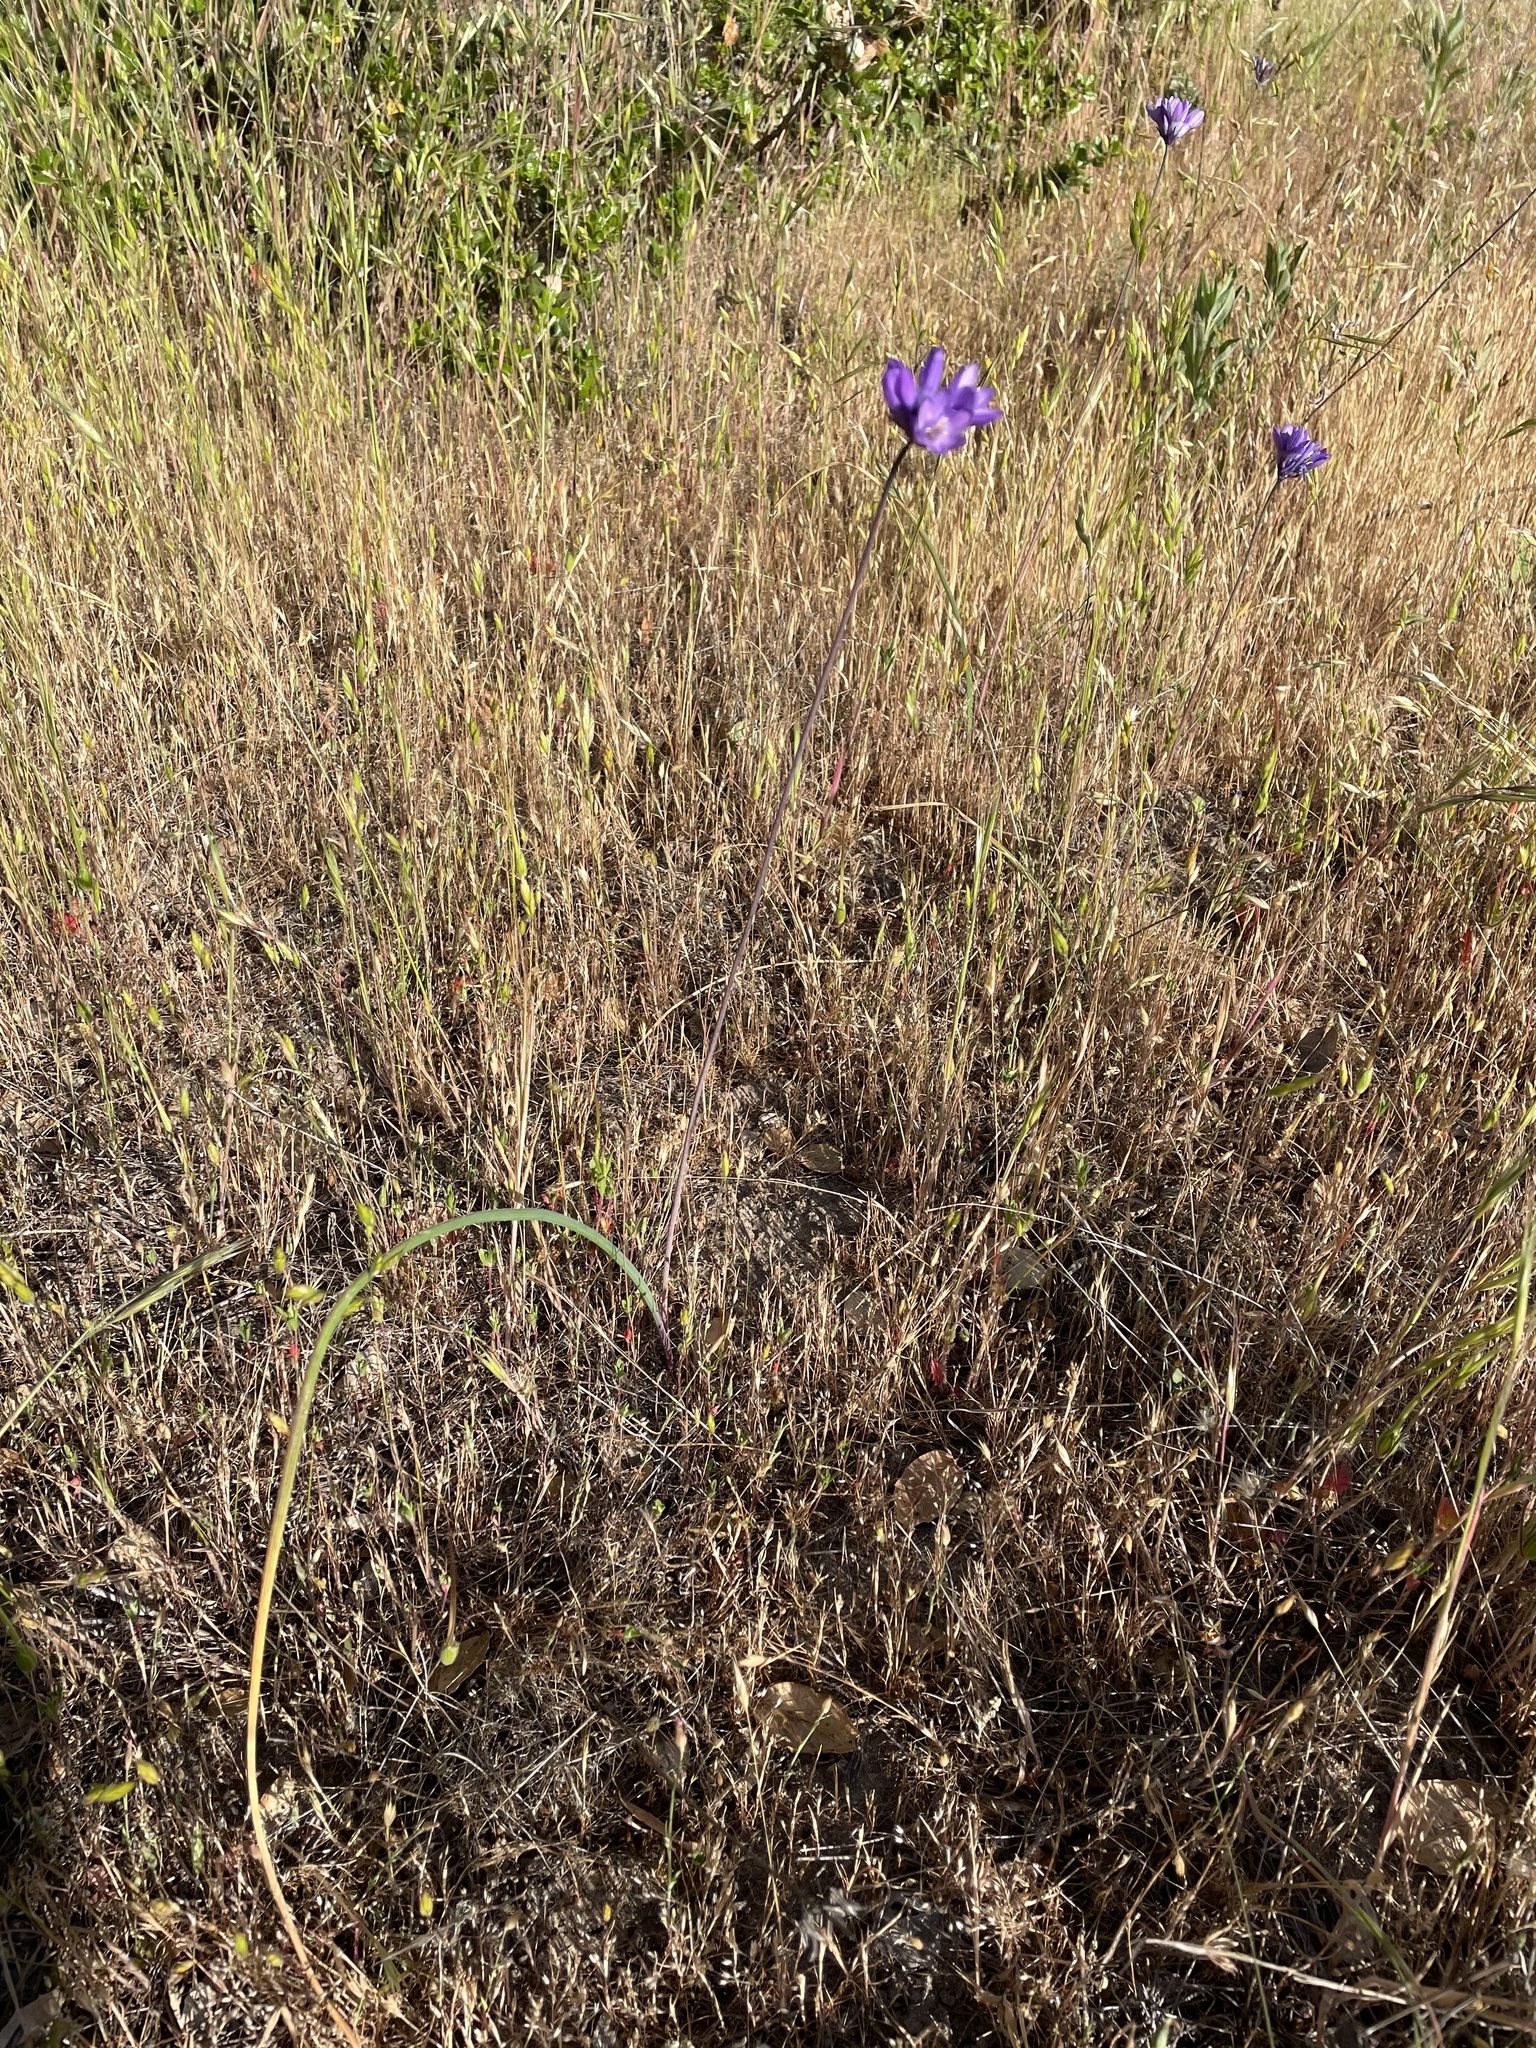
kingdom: Plantae
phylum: Tracheophyta
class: Liliopsida
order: Asparagales
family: Asparagaceae
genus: Dipterostemon
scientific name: Dipterostemon capitatus
